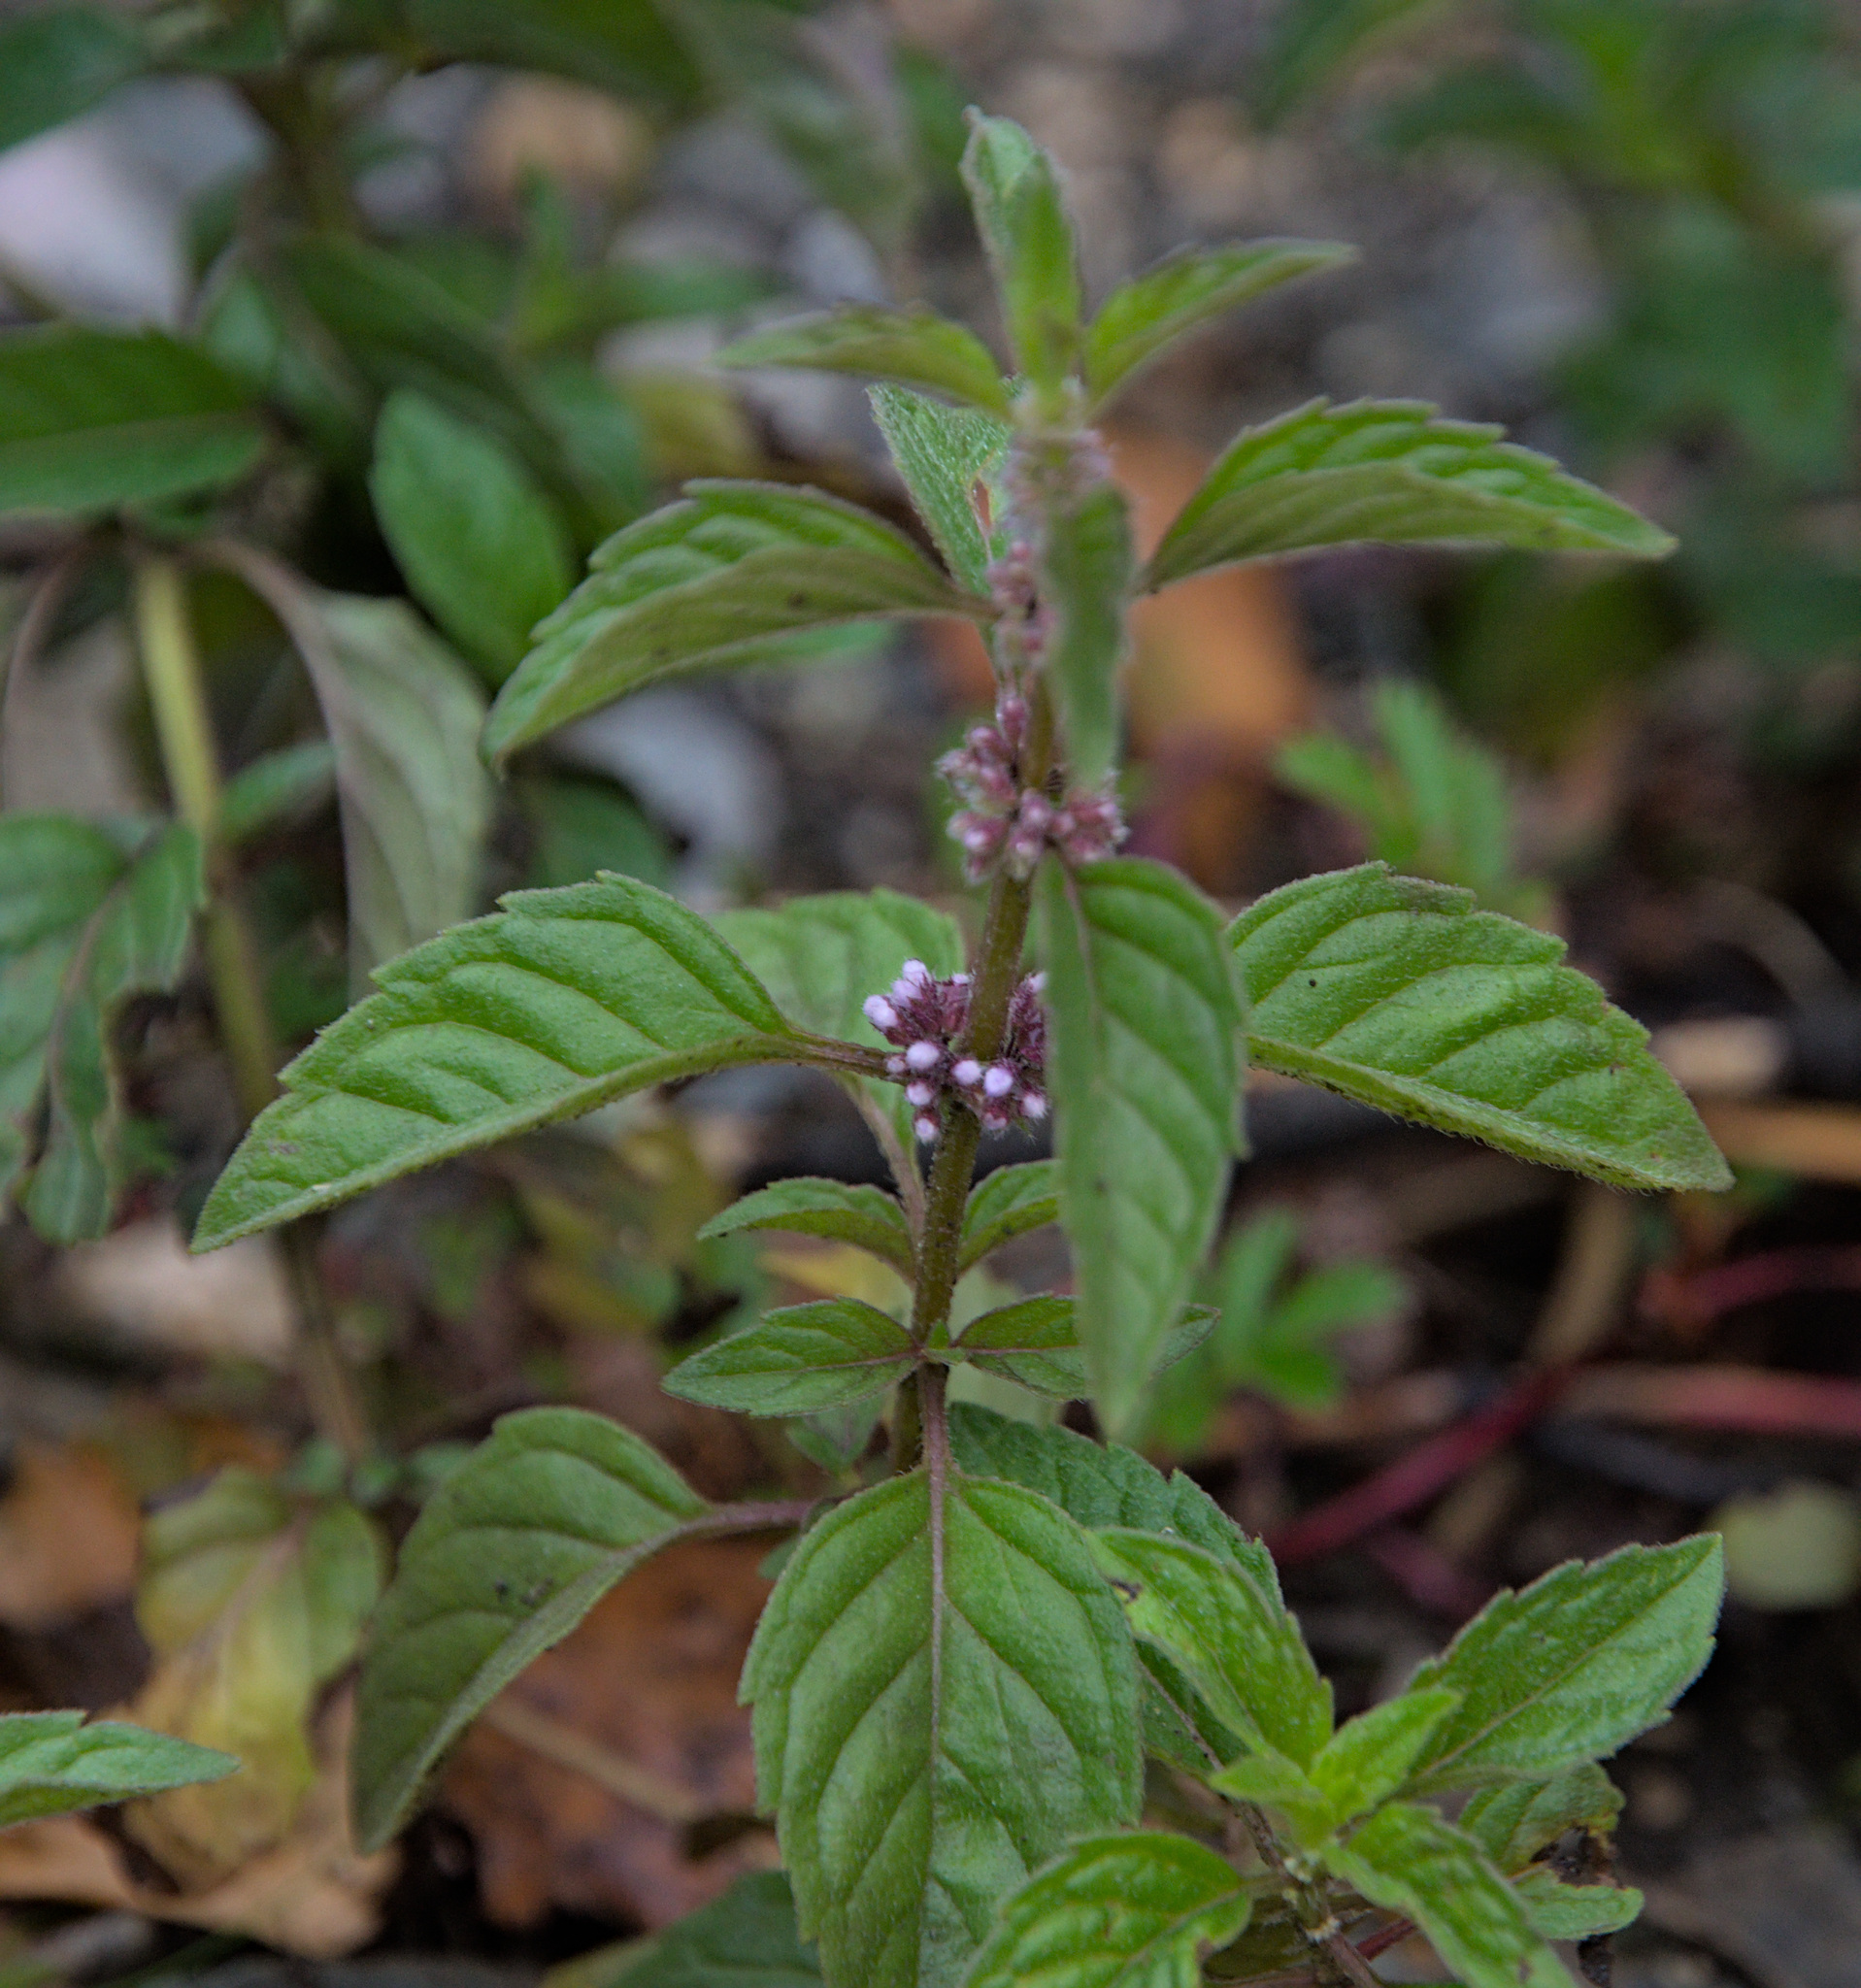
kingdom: Plantae
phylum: Tracheophyta
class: Magnoliopsida
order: Lamiales
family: Lamiaceae
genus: Mentha
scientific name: Mentha arvensis
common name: Corn mint
